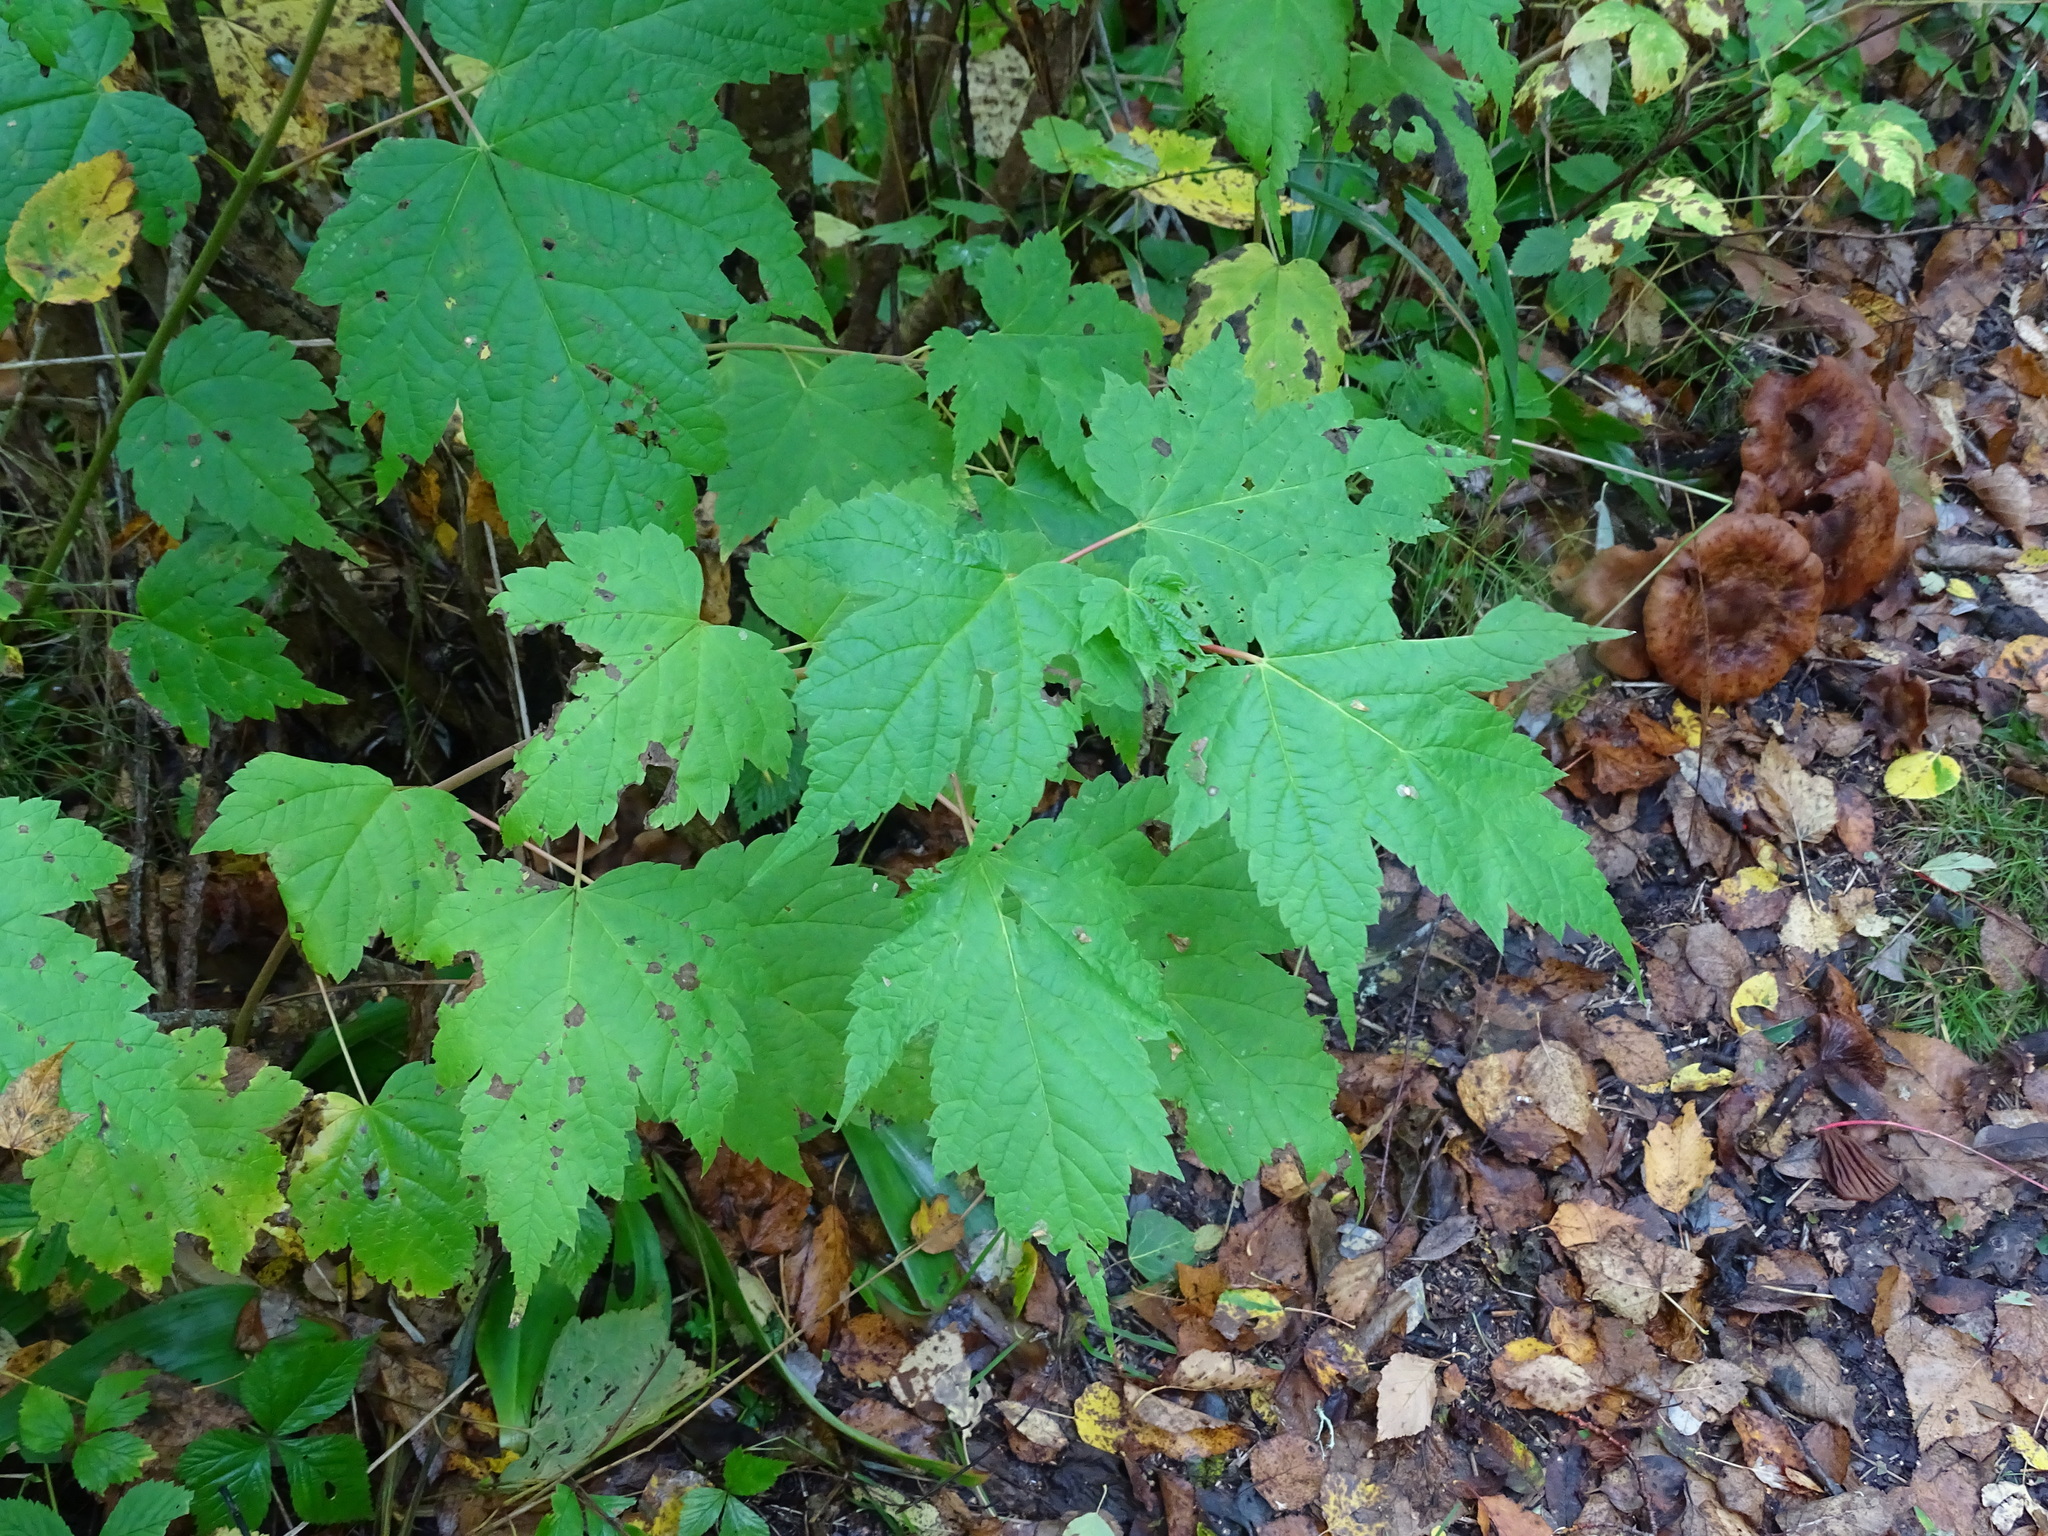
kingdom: Plantae
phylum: Tracheophyta
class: Magnoliopsida
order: Sapindales
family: Sapindaceae
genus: Acer
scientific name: Acer spicatum
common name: Mountain maple
